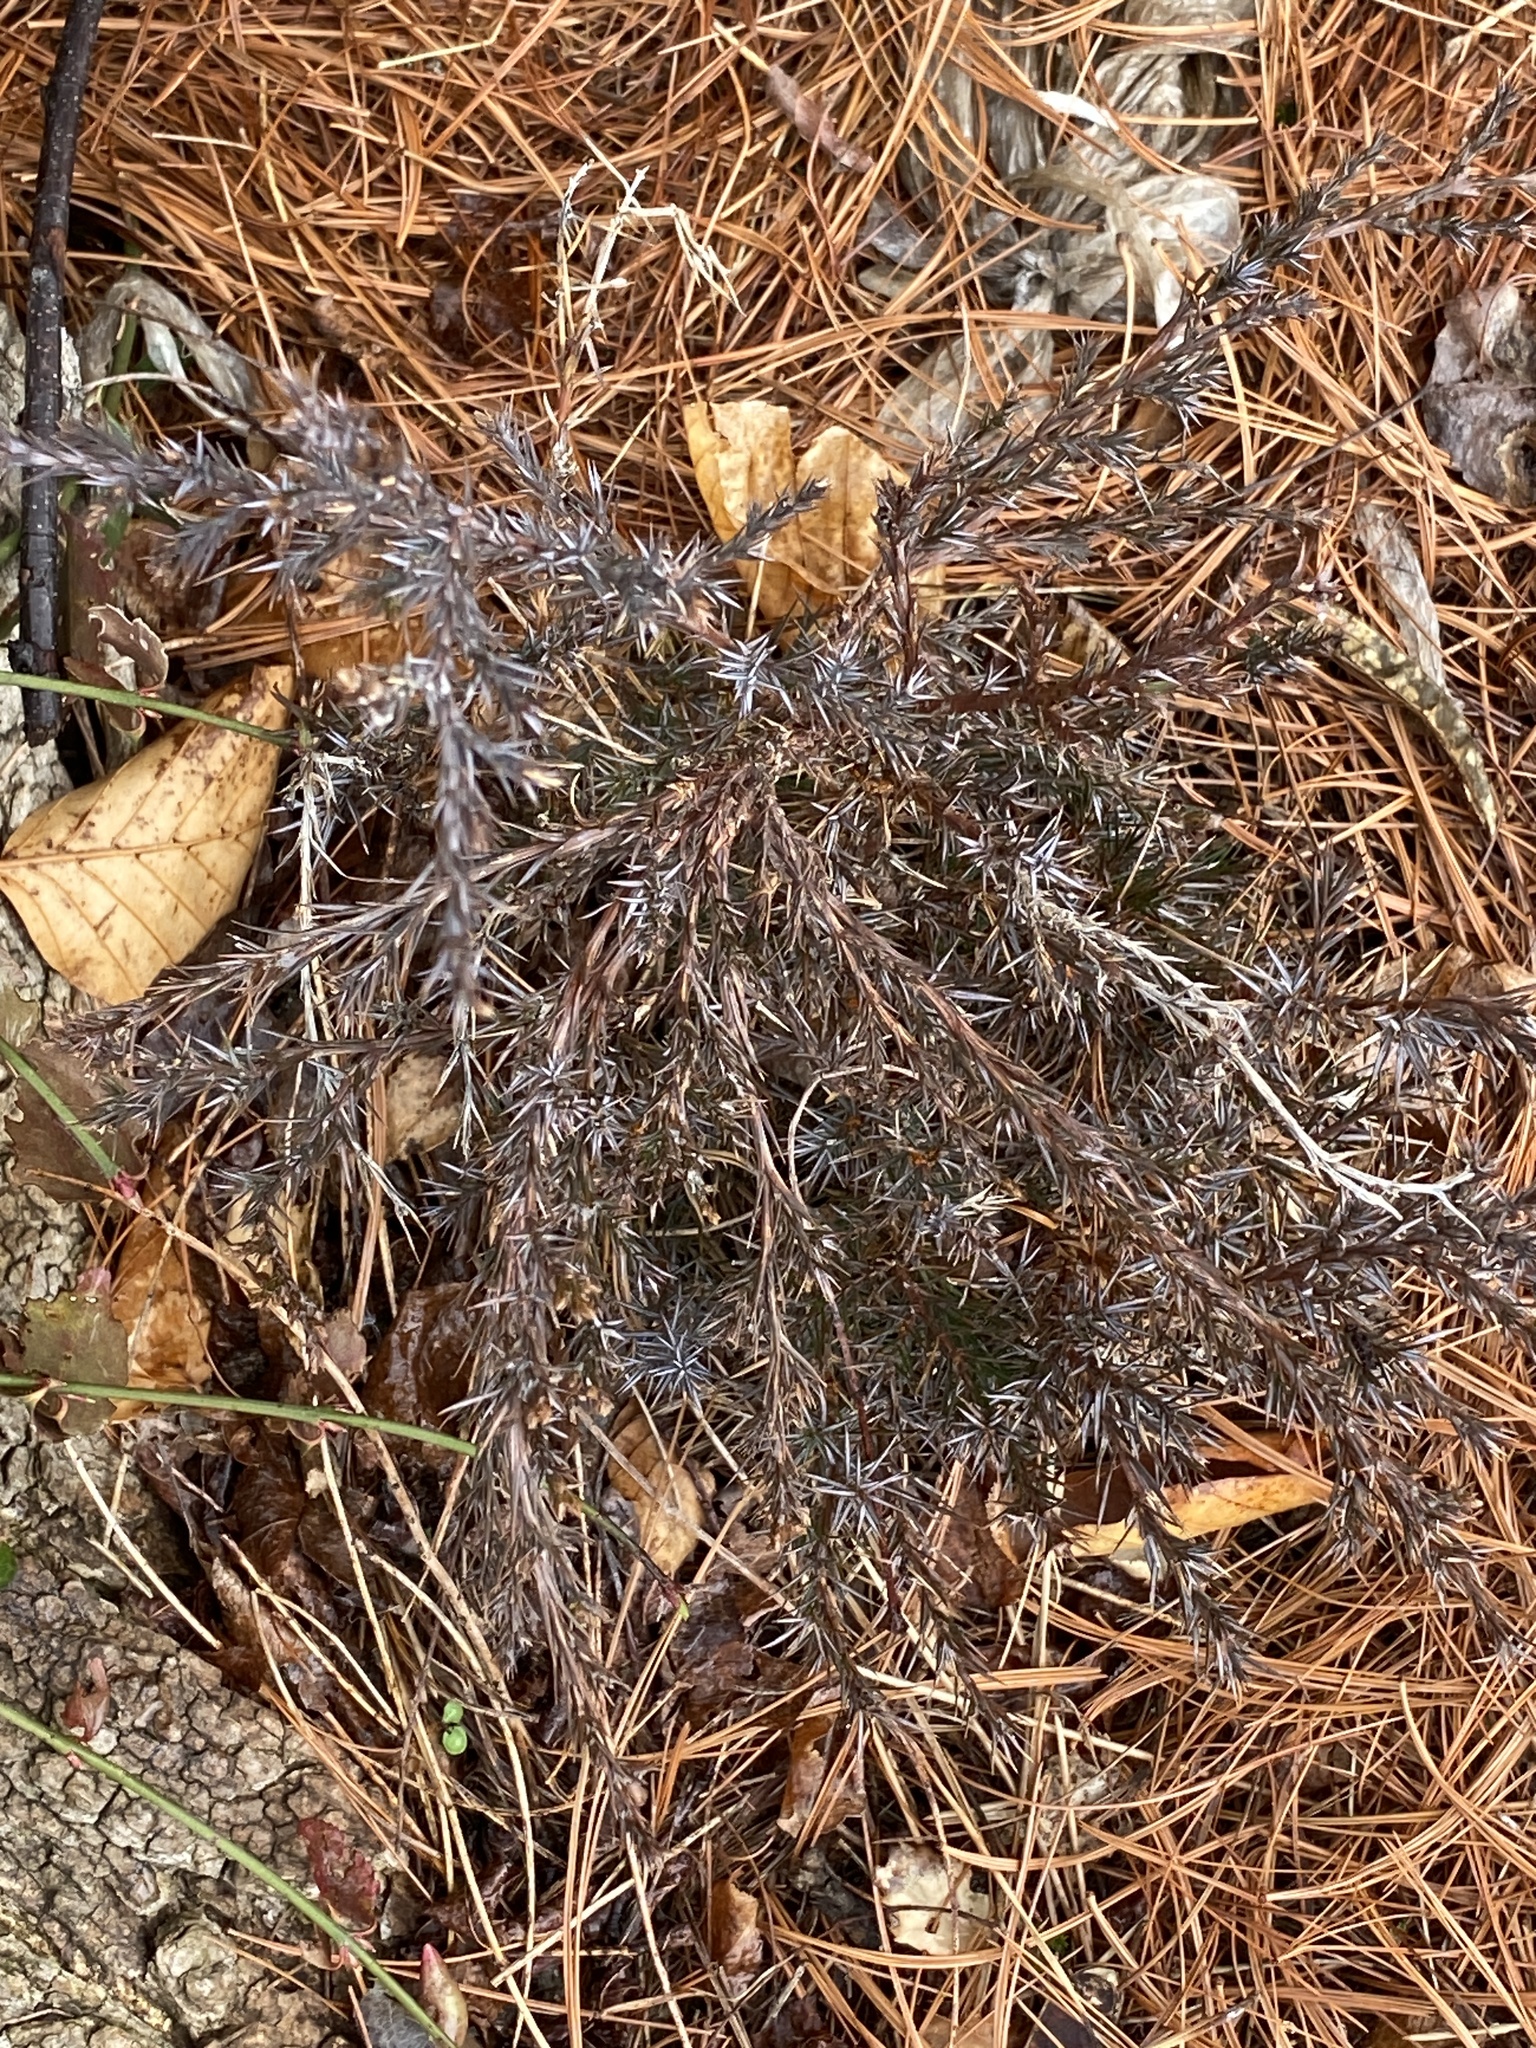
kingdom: Plantae
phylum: Tracheophyta
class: Pinopsida
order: Pinales
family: Cupressaceae
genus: Juniperus
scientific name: Juniperus virginiana
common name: Red juniper
